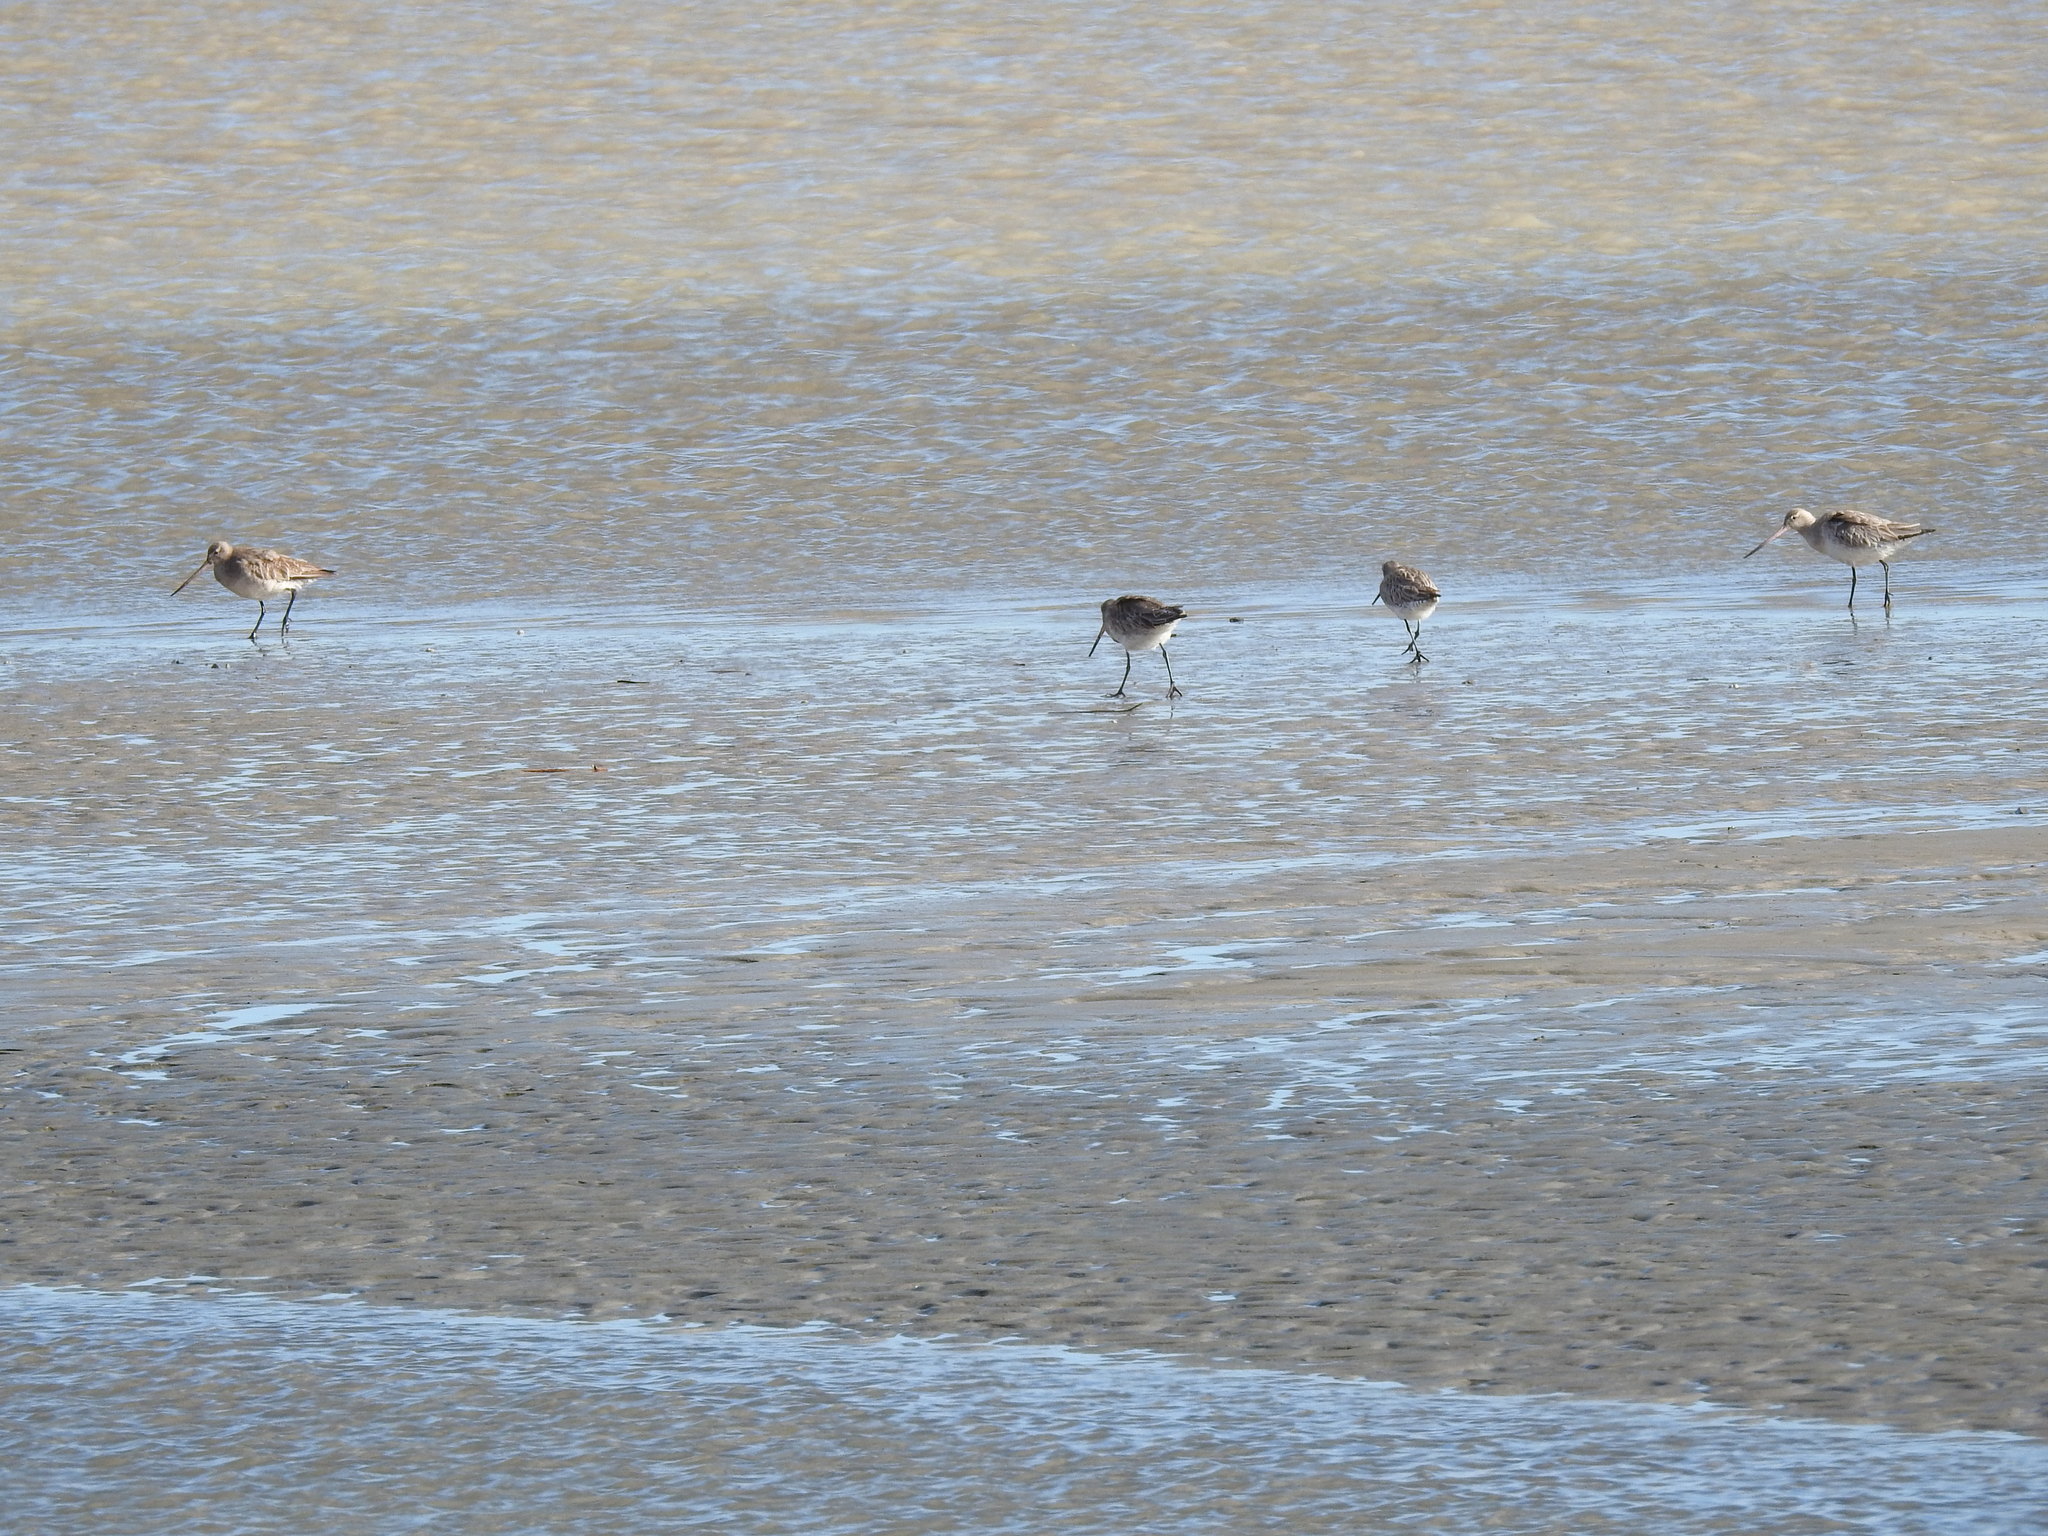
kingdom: Animalia
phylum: Chordata
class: Aves
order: Charadriiformes
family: Scolopacidae
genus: Limosa
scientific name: Limosa lapponica
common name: Bar-tailed godwit
